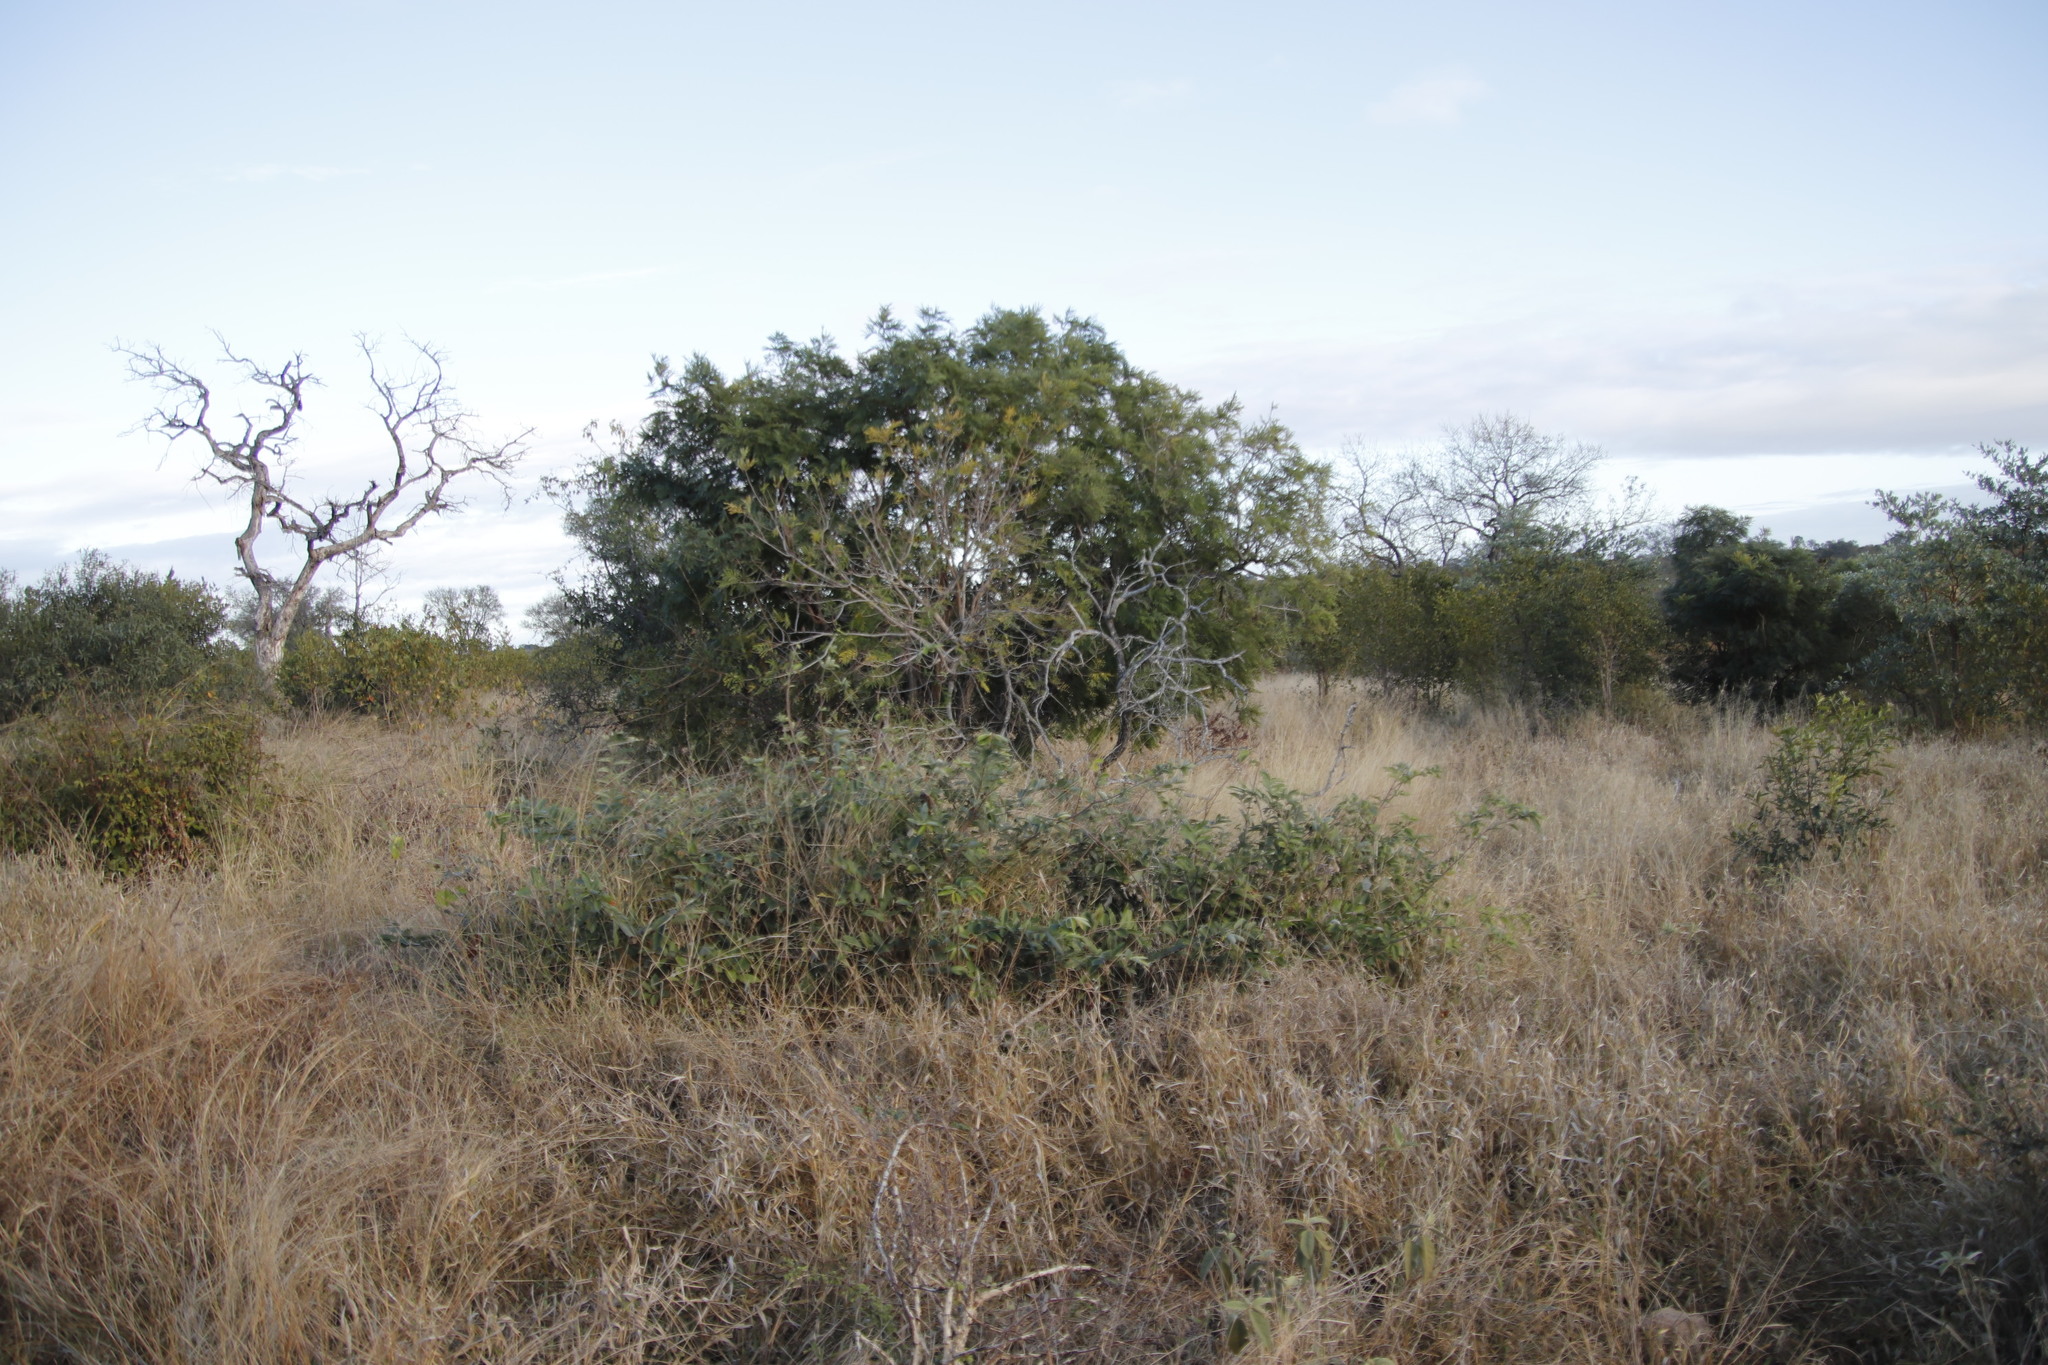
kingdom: Plantae
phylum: Tracheophyta
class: Magnoliopsida
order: Fabales
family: Fabaceae
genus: Peltophorum
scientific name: Peltophorum africanum
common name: African black wattle
